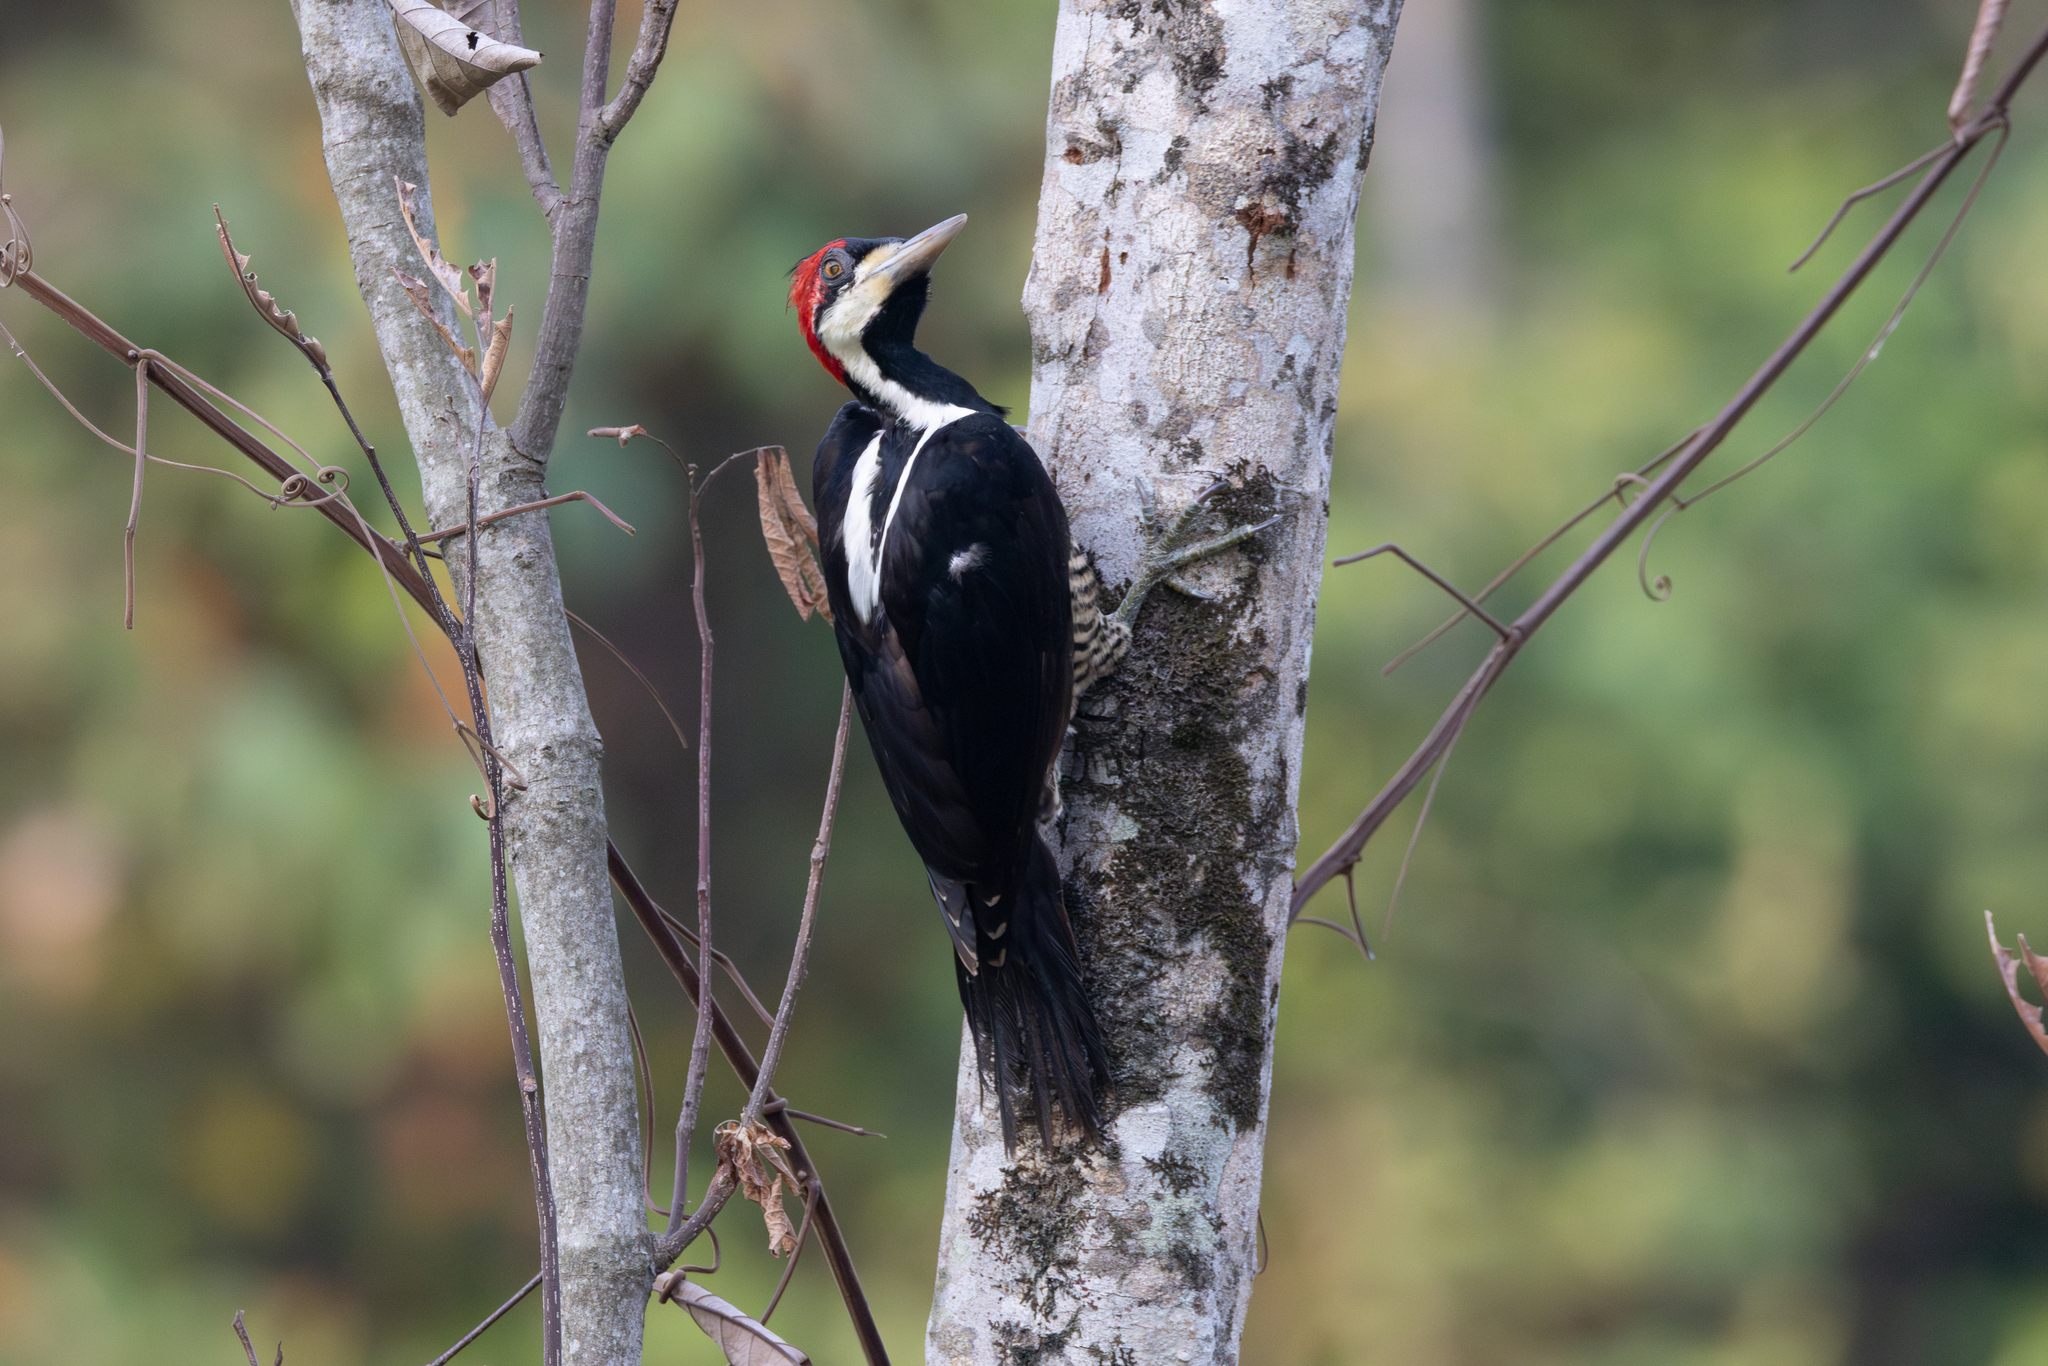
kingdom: Animalia
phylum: Chordata
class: Aves
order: Piciformes
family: Picidae
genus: Campephilus
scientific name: Campephilus melanoleucos
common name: Crimson-crested woodpecker
